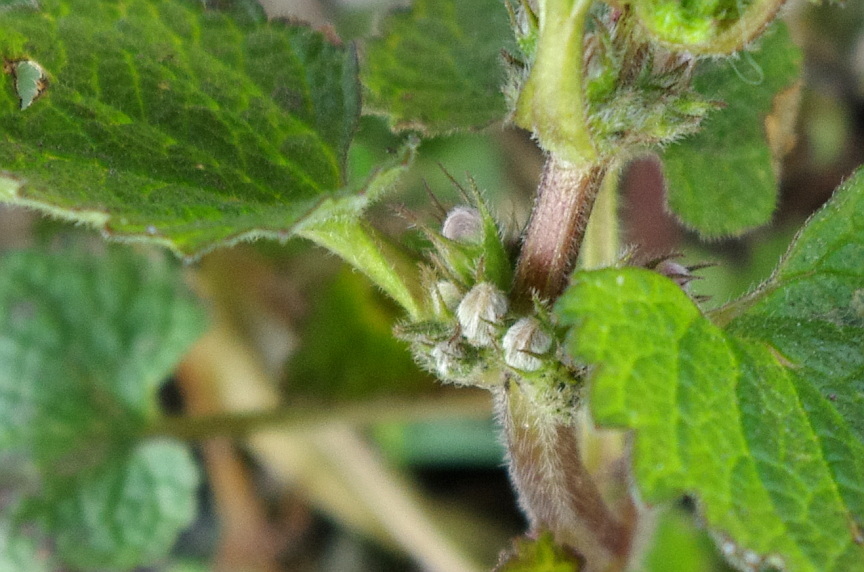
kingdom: Plantae
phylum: Tracheophyta
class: Magnoliopsida
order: Lamiales
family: Lamiaceae
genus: Lamium
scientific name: Lamium album
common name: White dead-nettle
